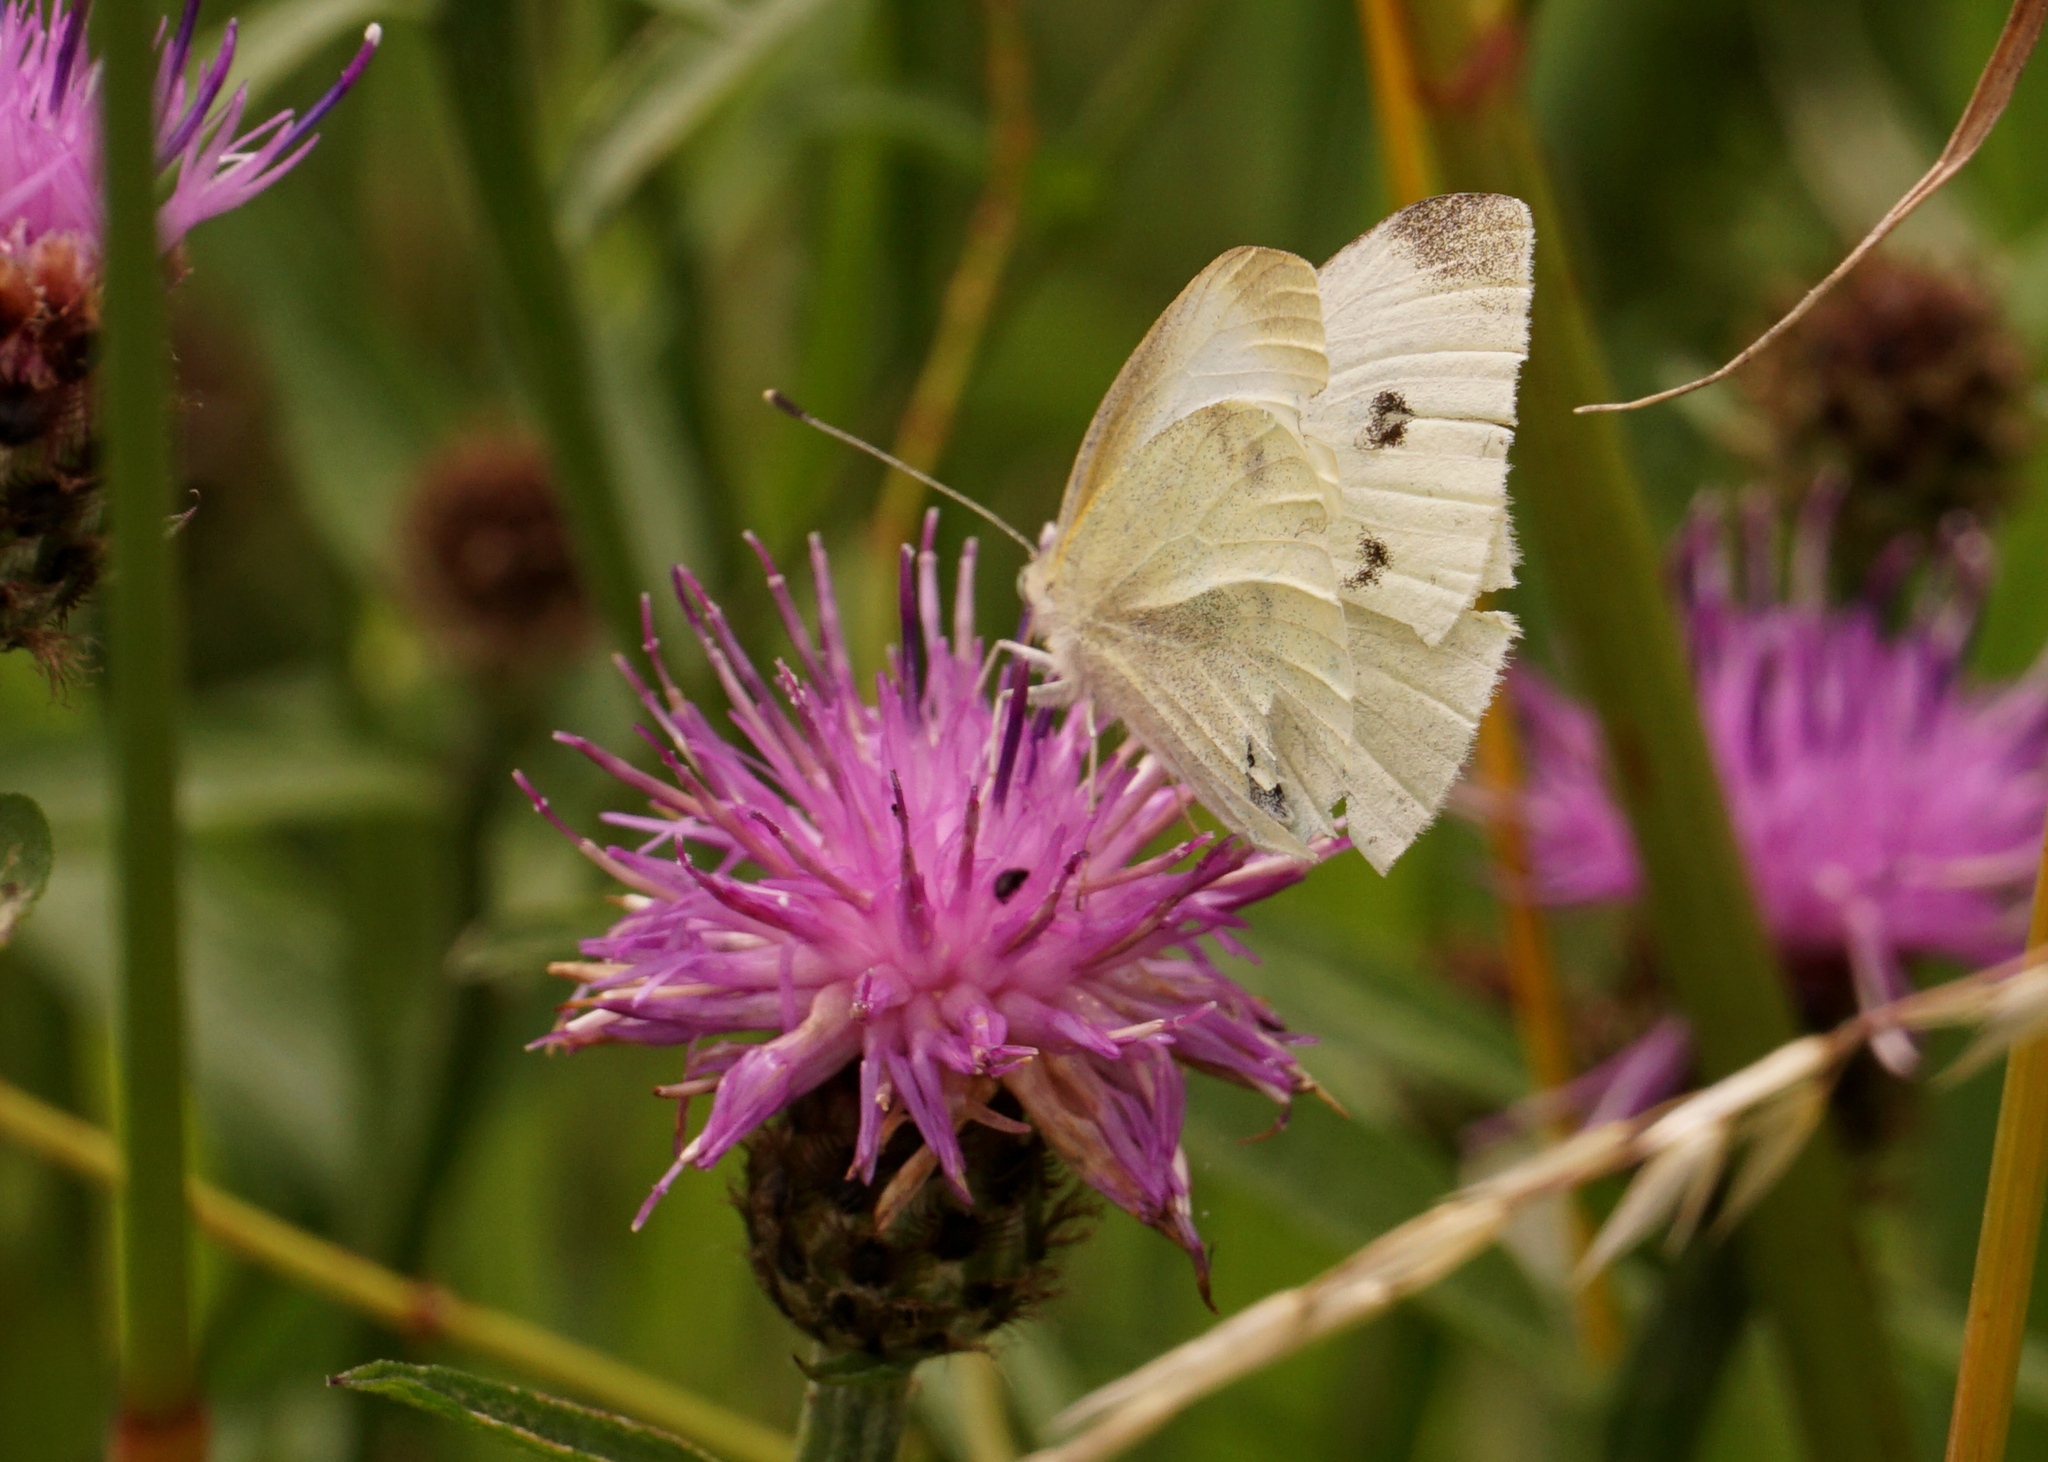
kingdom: Animalia
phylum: Arthropoda
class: Insecta
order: Lepidoptera
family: Pieridae
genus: Pieris
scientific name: Pieris rapae
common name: Small white
